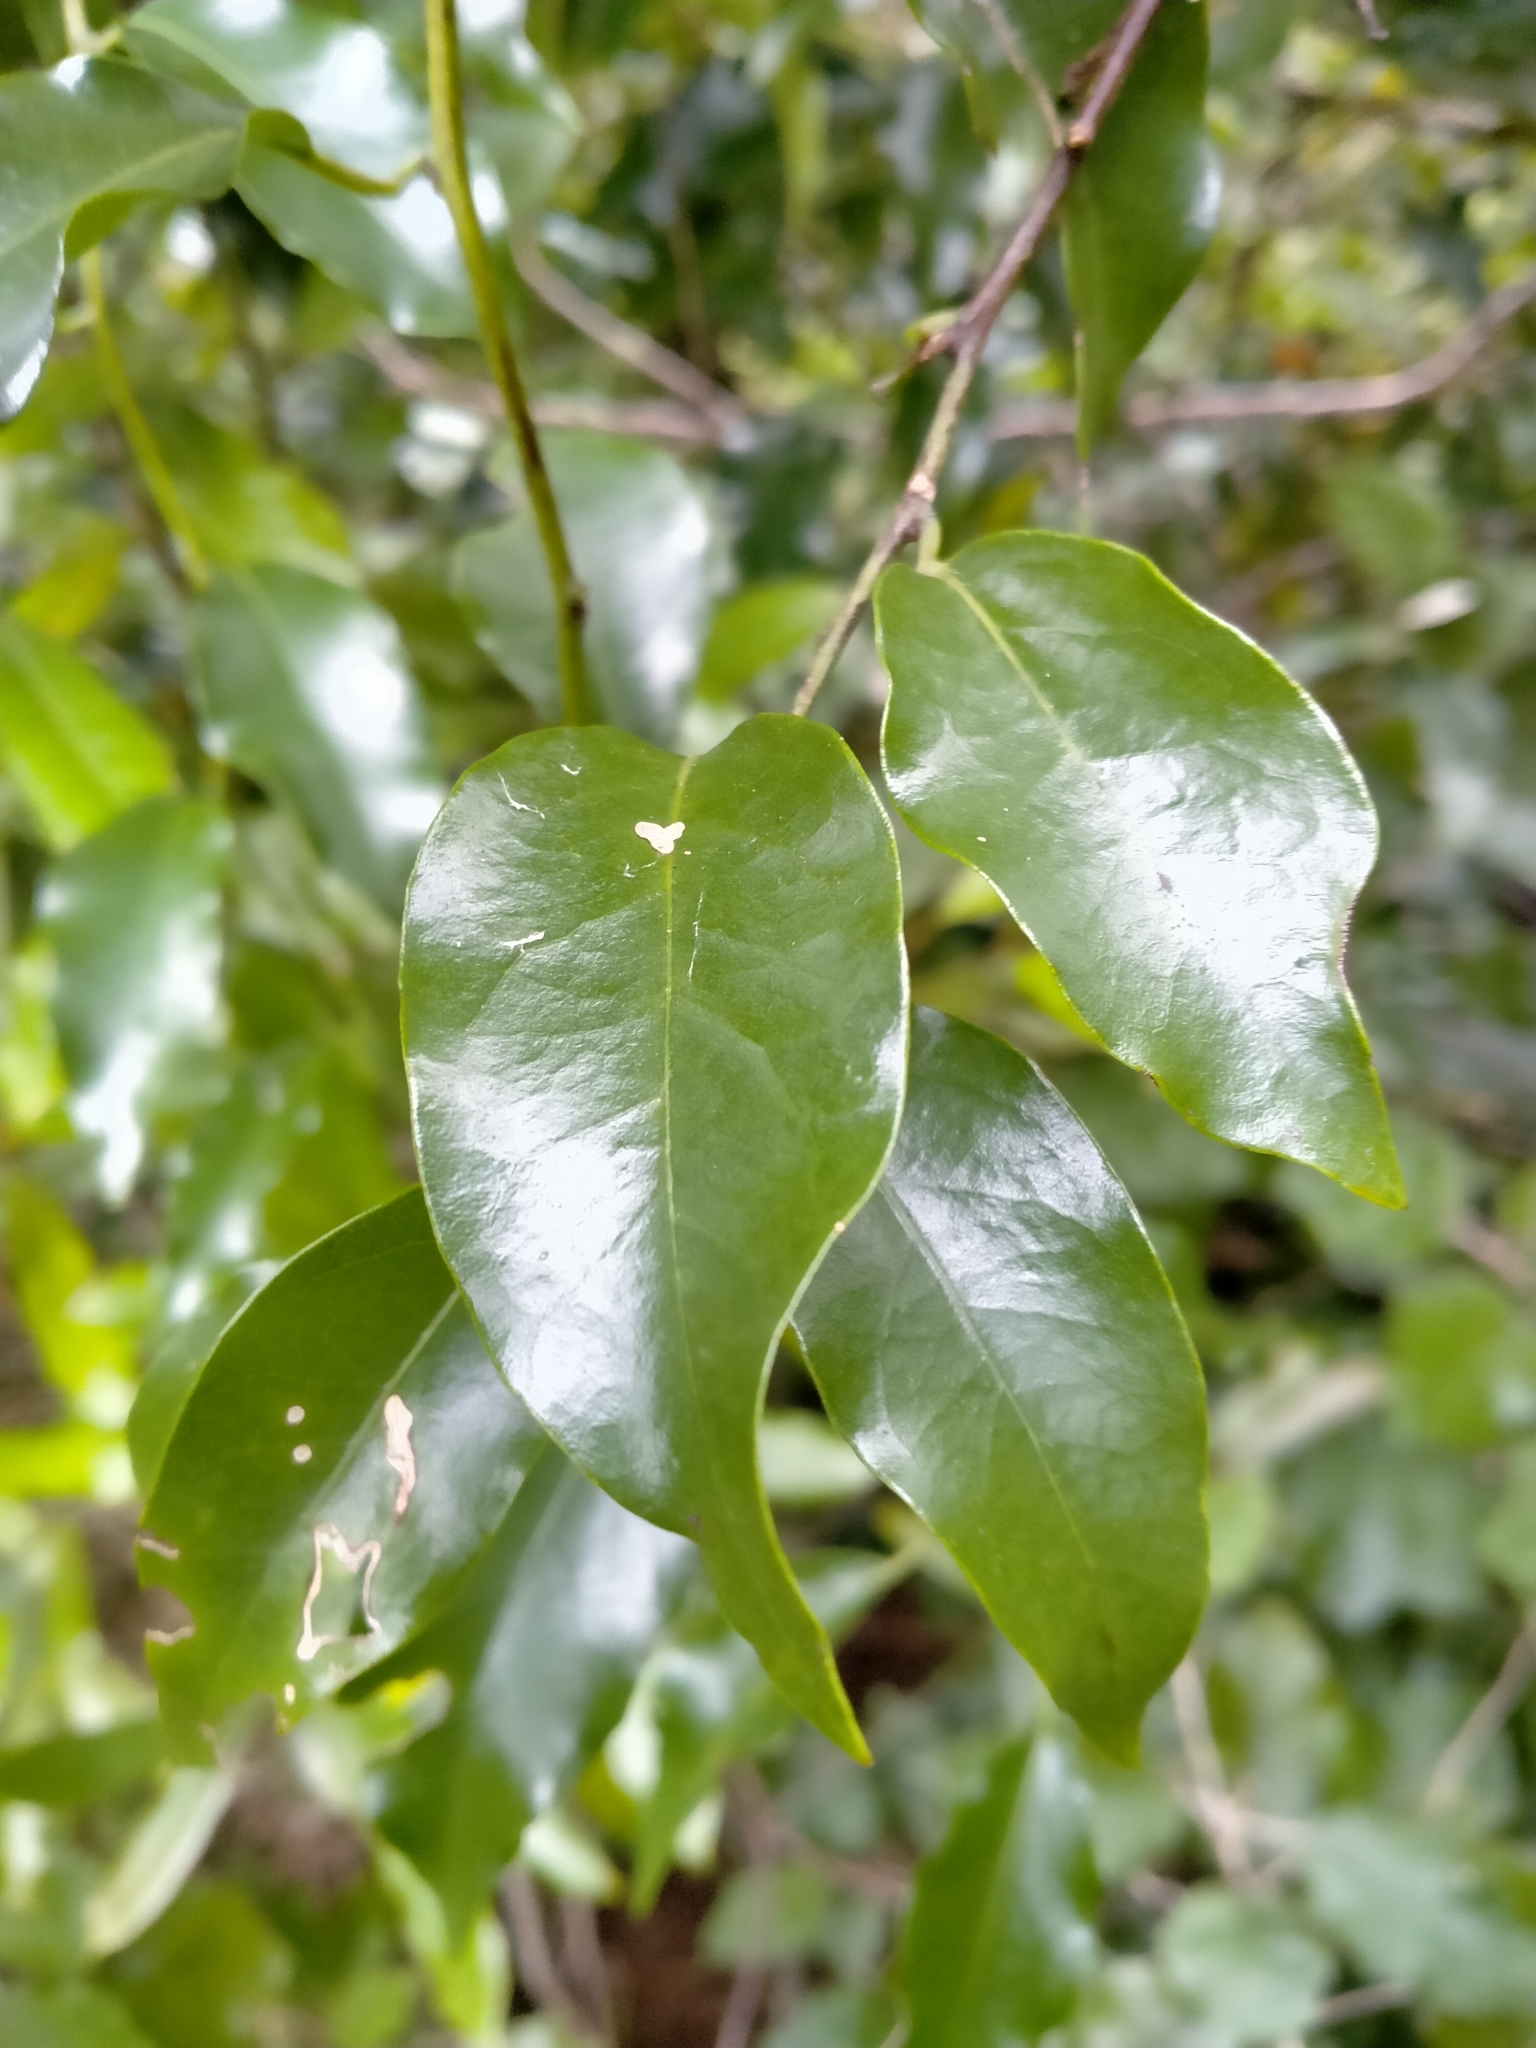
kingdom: Plantae
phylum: Tracheophyta
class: Magnoliopsida
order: Malpighiales
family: Passifloraceae
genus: Passiflora
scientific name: Passiflora tetrandra
